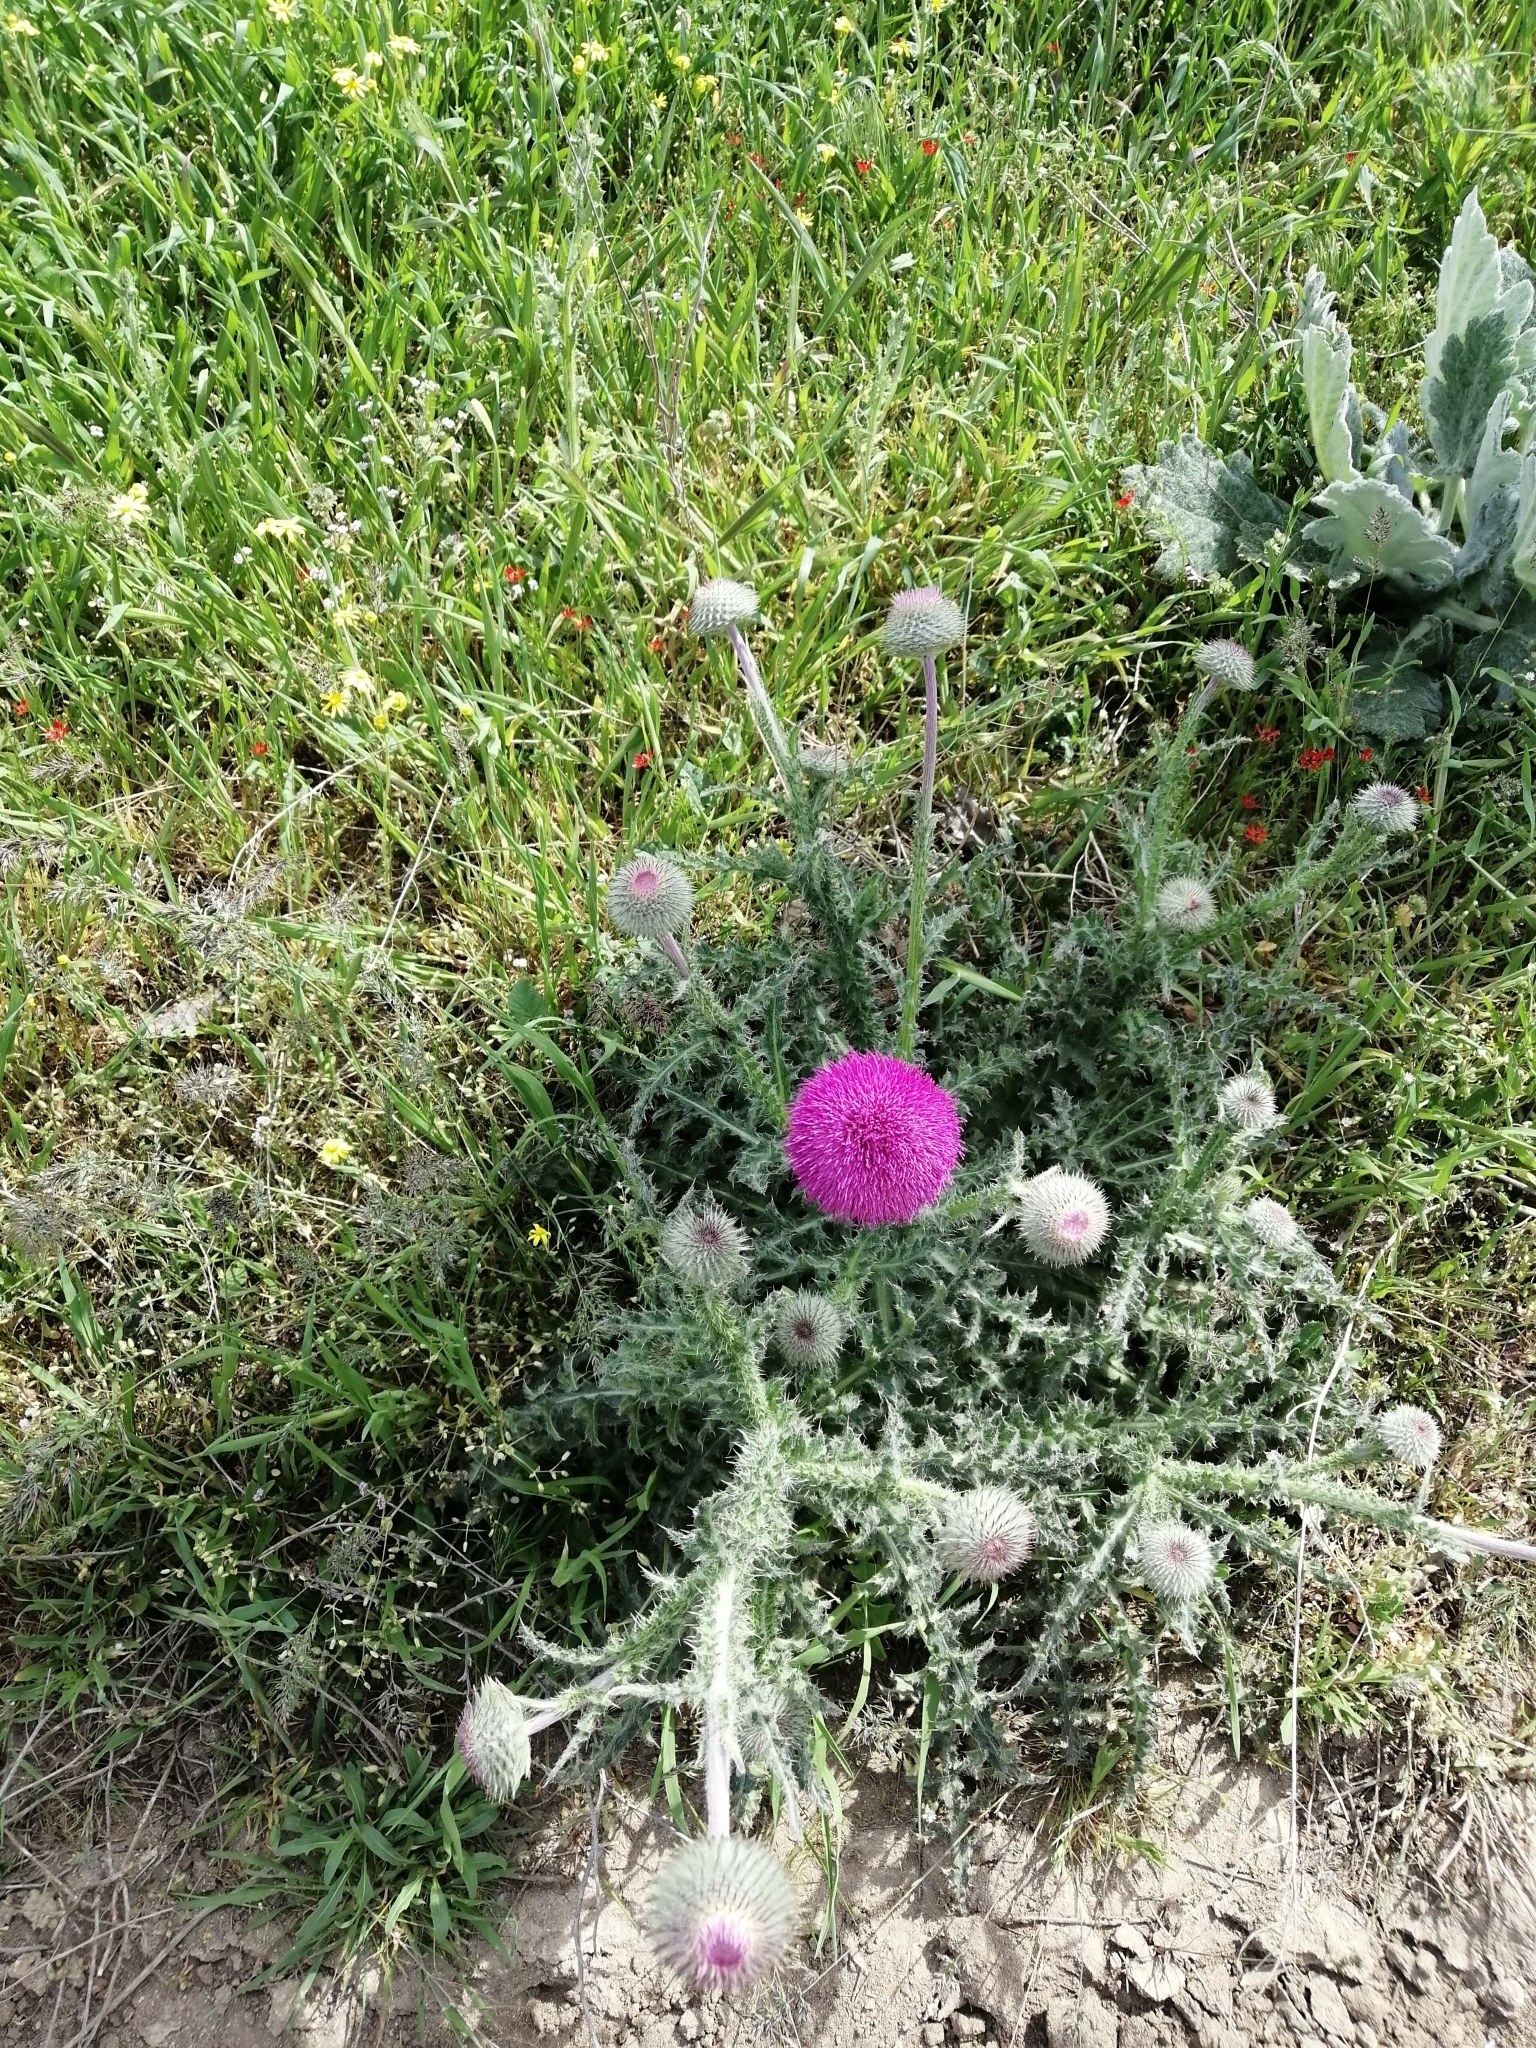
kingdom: Plantae
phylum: Tracheophyta
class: Magnoliopsida
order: Asterales
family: Asteraceae
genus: Carduus
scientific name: Carduus uncinatus
